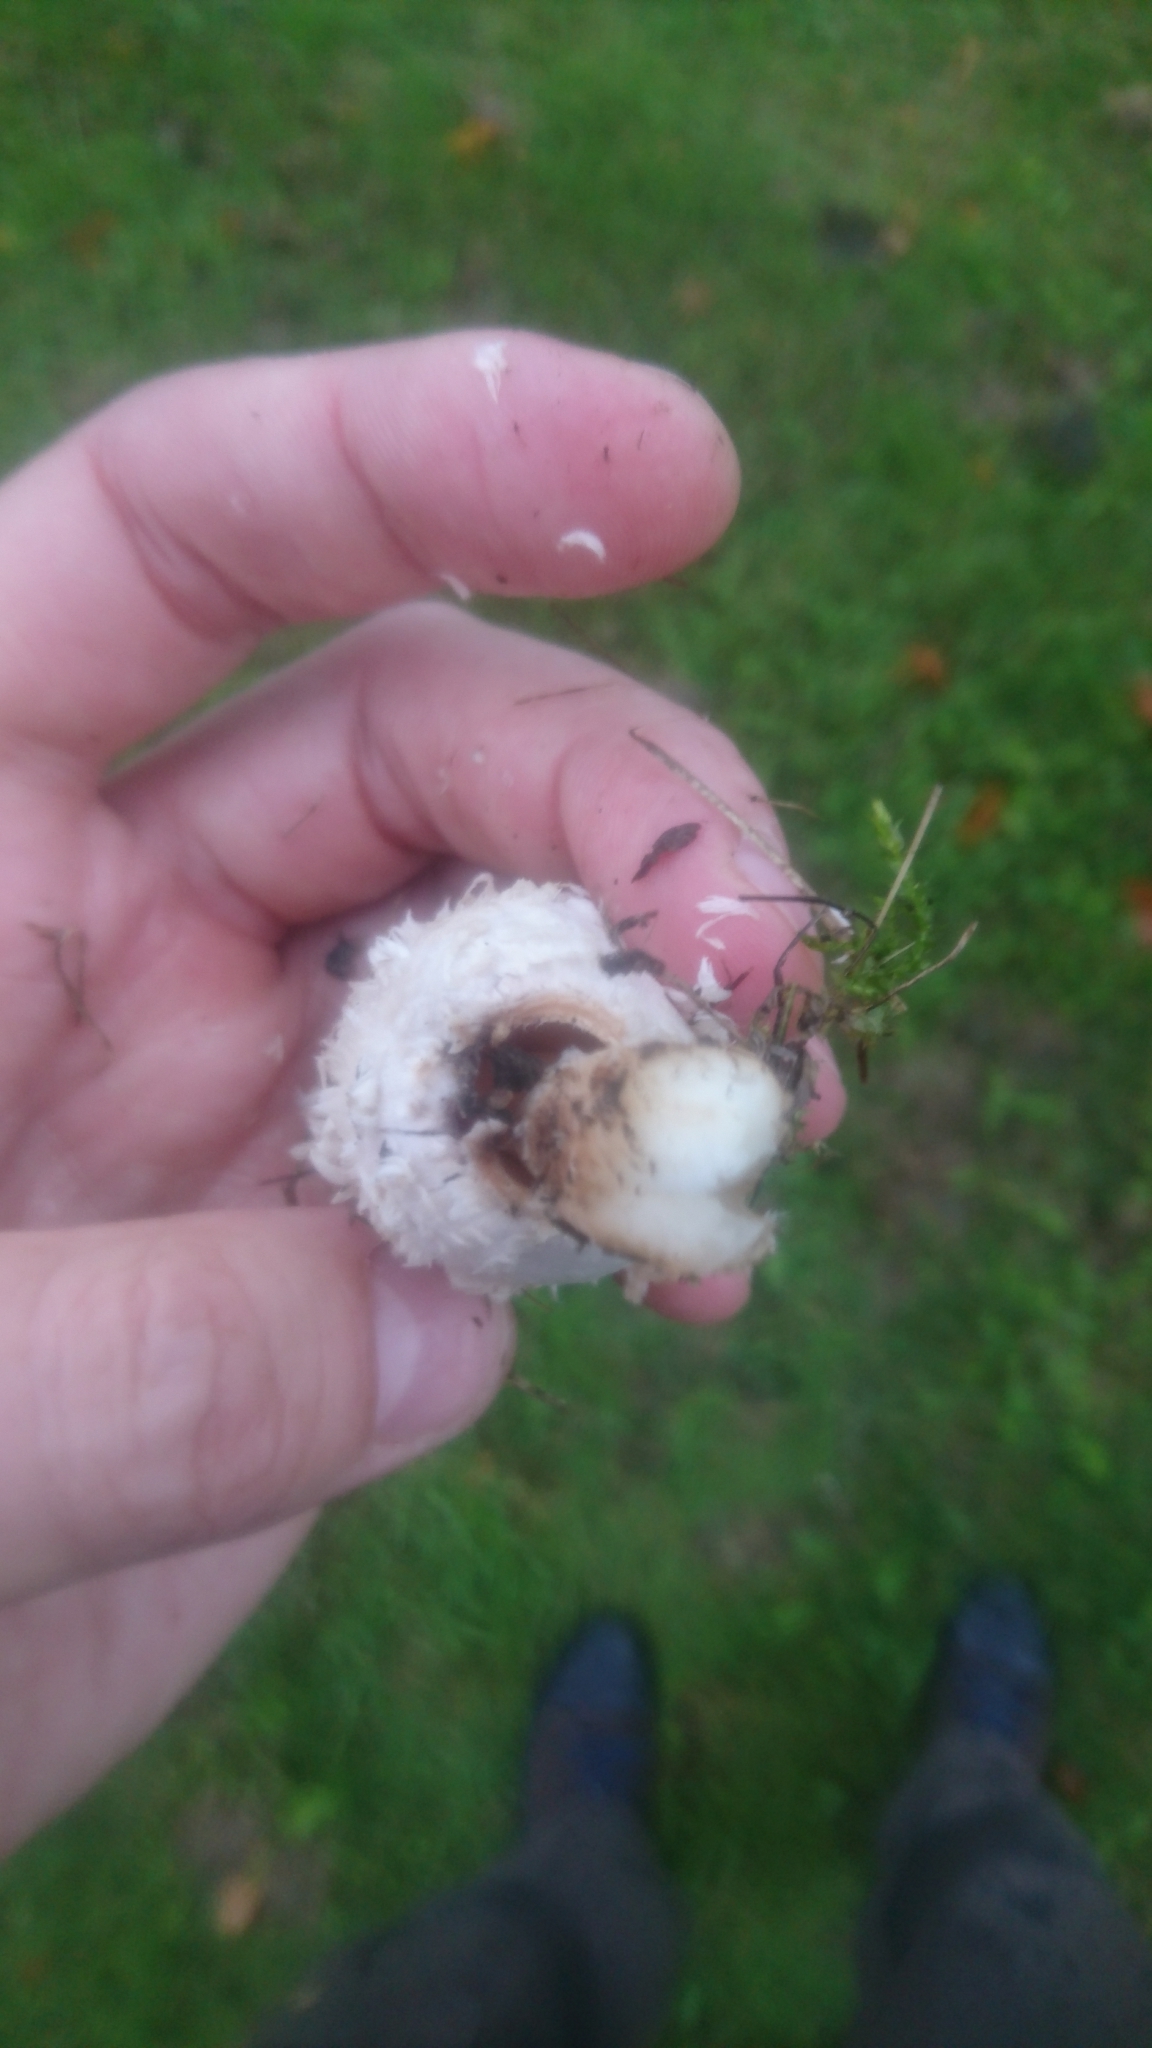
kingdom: Fungi
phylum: Basidiomycota
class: Agaricomycetes
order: Agaricales
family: Agaricaceae
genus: Coprinus
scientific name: Coprinus comatus
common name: Lawyer's wig
